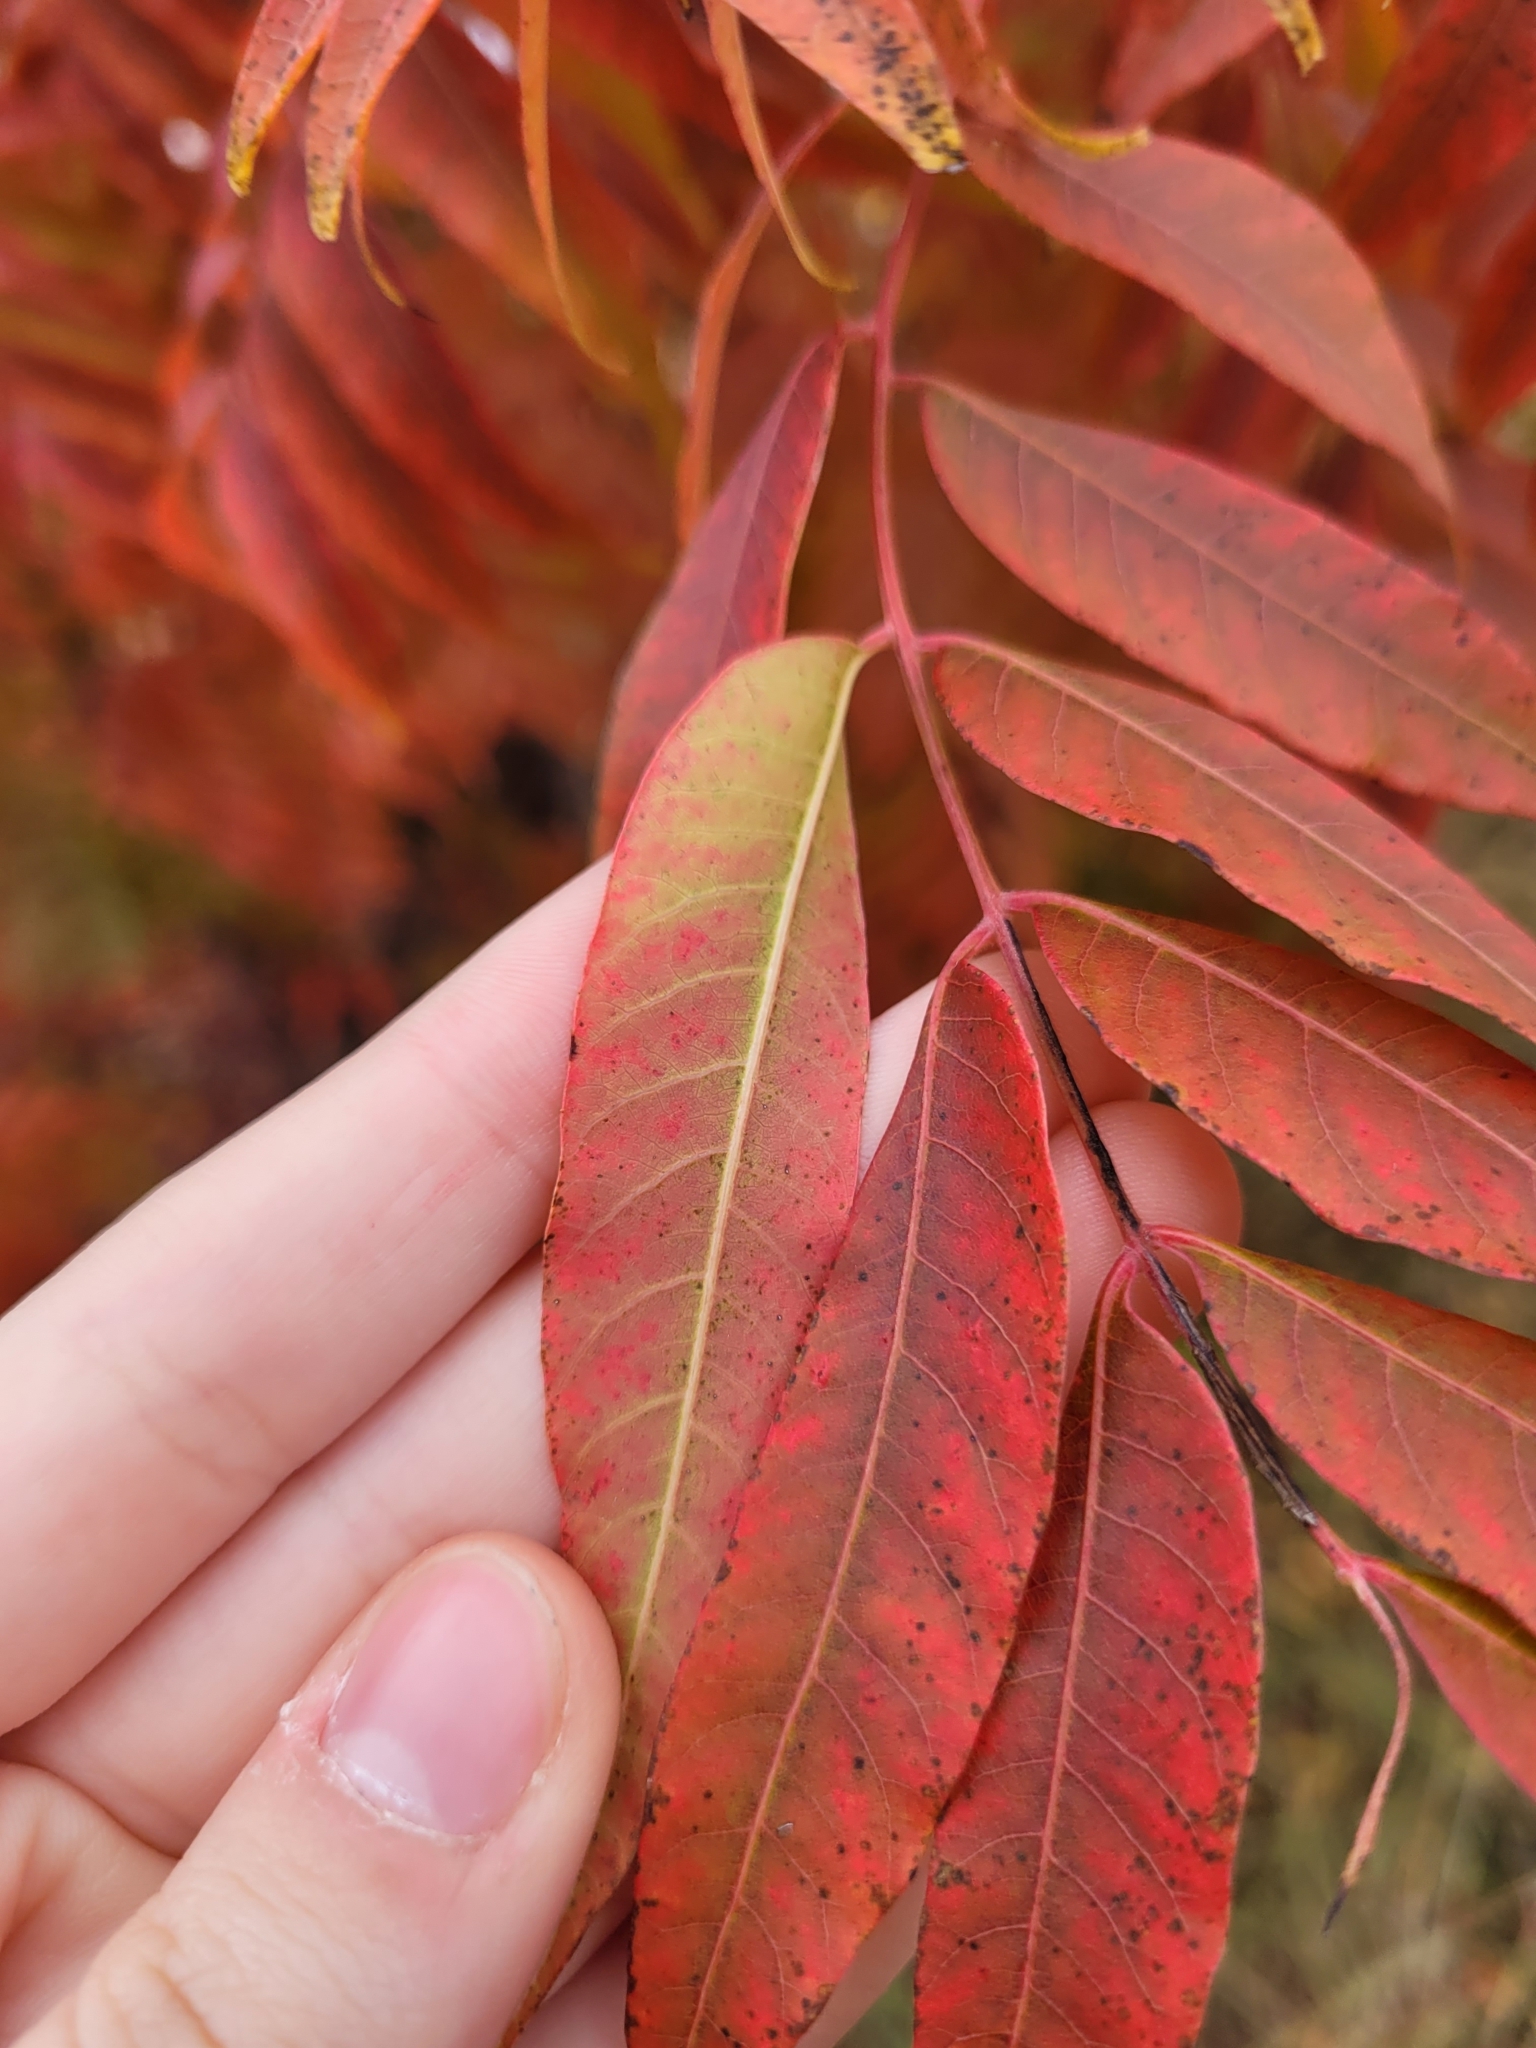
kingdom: Plantae
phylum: Tracheophyta
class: Magnoliopsida
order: Sapindales
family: Anacardiaceae
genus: Pistacia
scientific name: Pistacia chinensis
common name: Chinese pistache
